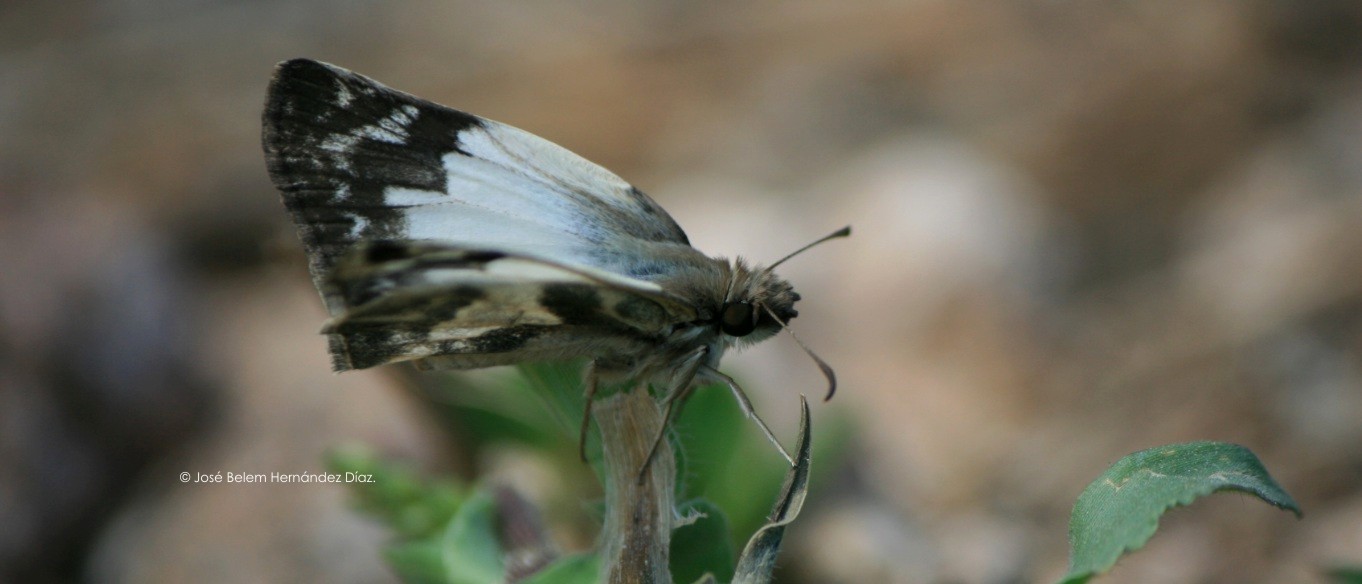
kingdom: Animalia
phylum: Arthropoda
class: Insecta
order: Lepidoptera
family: Hesperiidae
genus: Heliopetes
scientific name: Heliopetes laviana
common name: Laviana white-skipper
